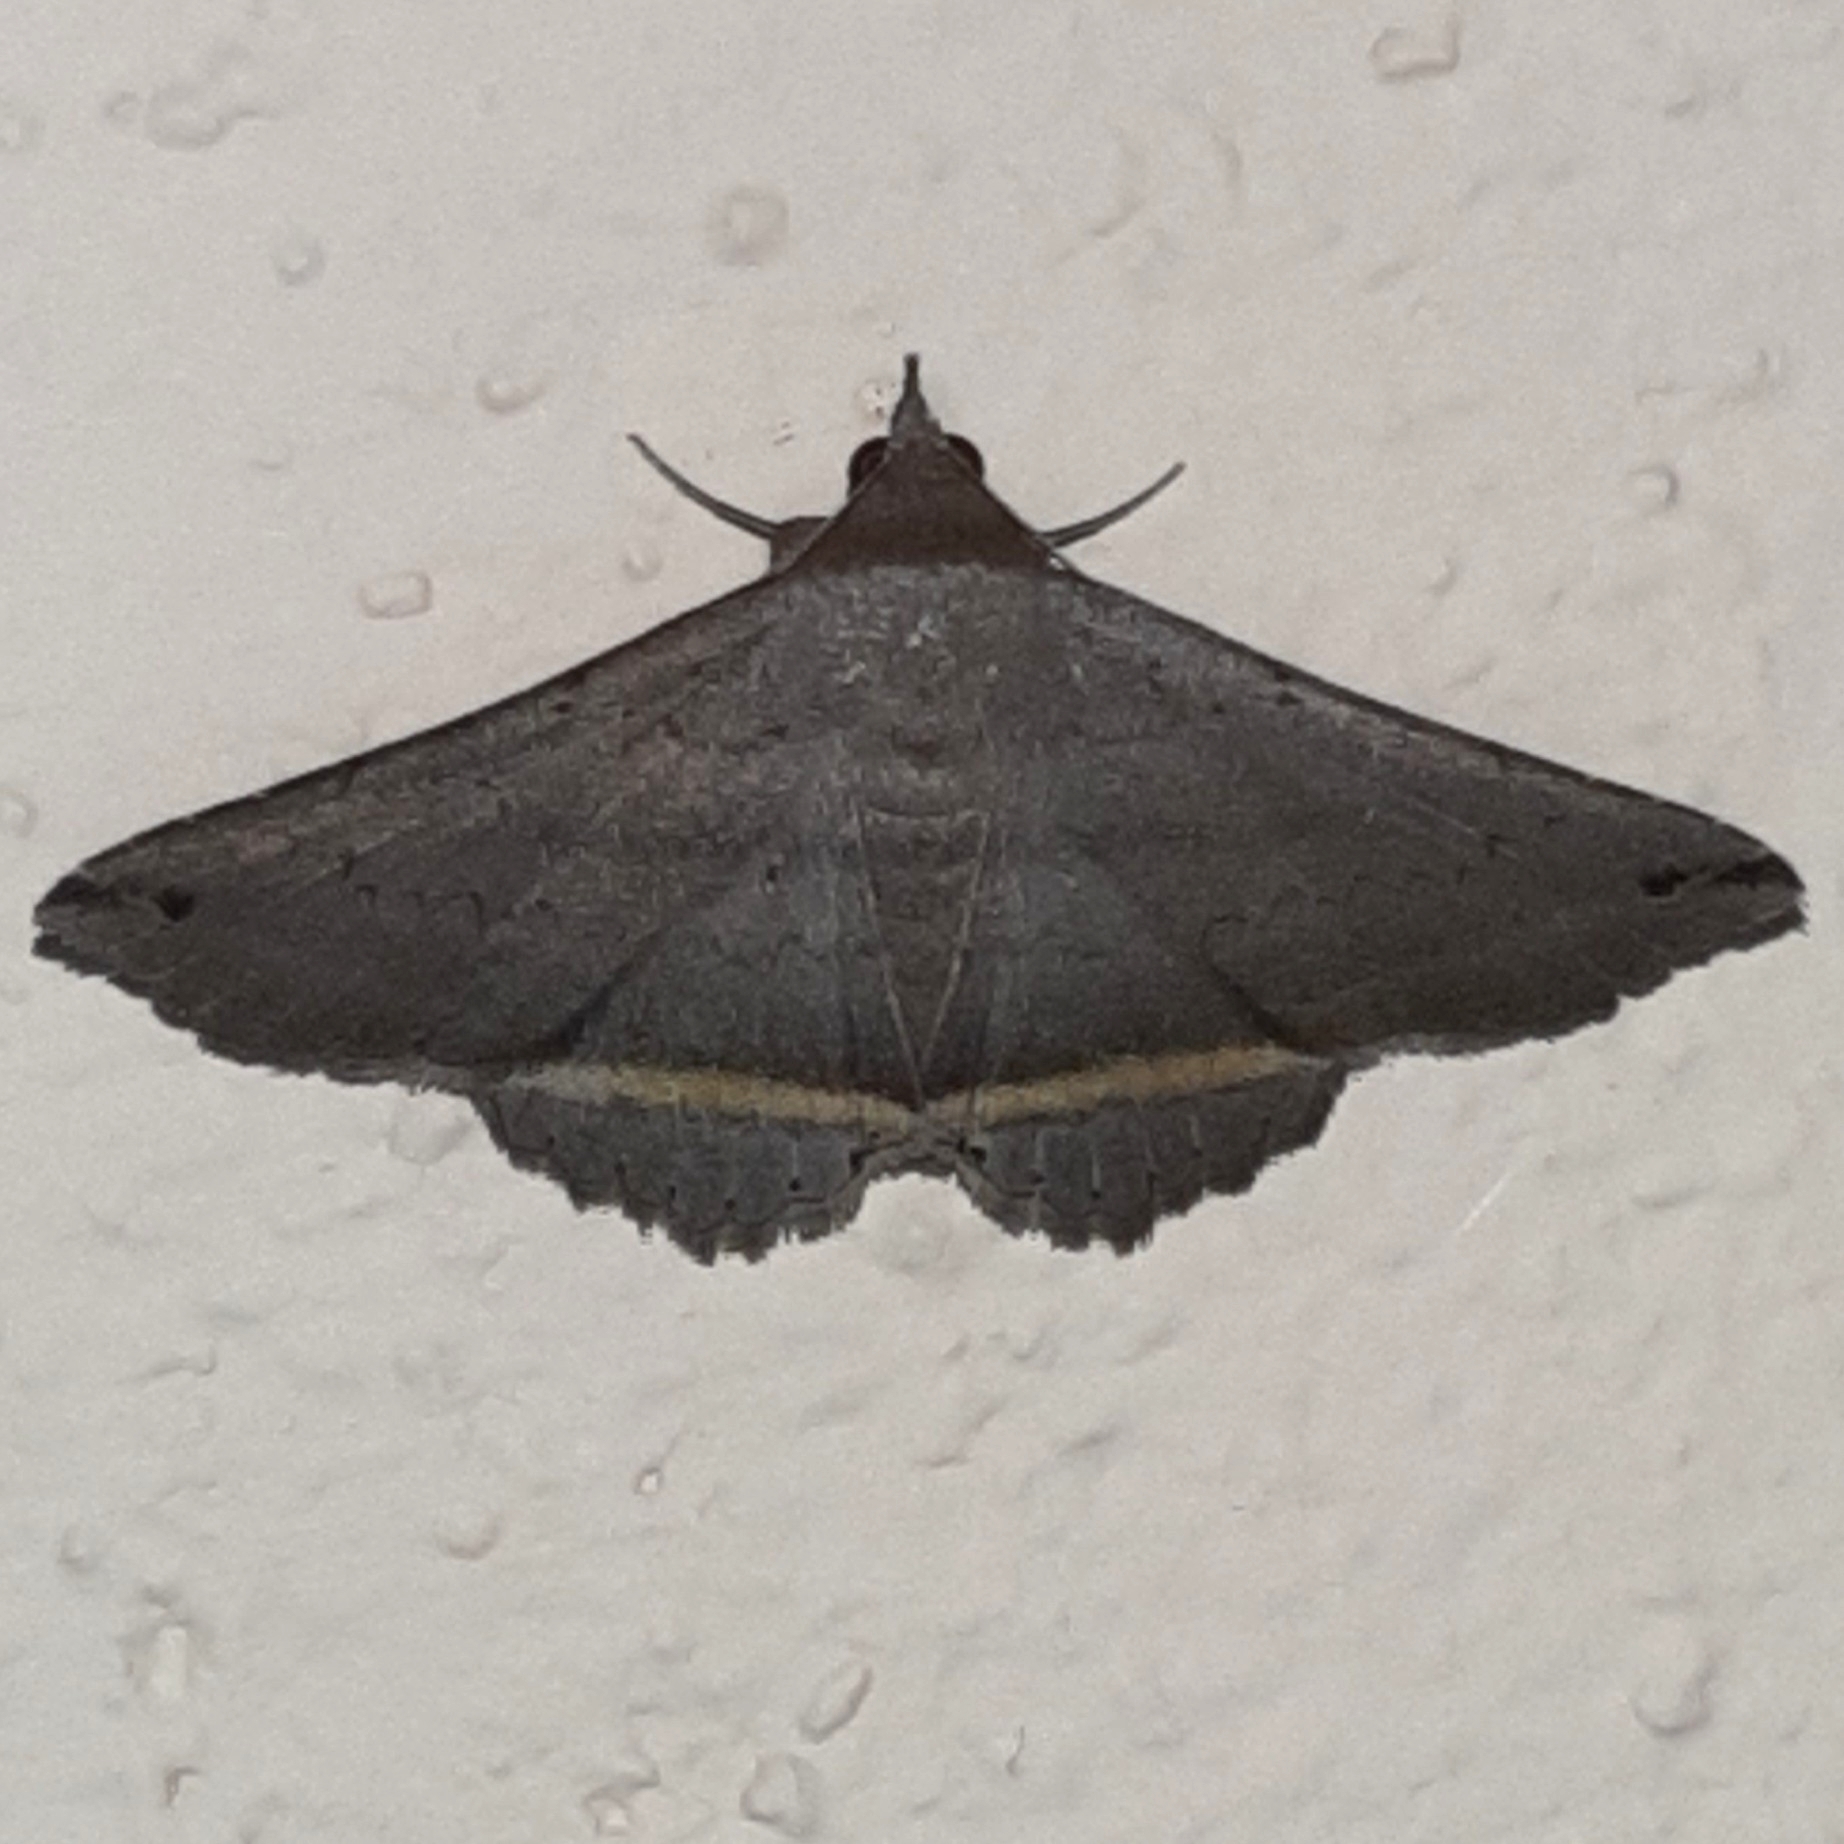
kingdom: Animalia
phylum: Arthropoda
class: Insecta
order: Lepidoptera
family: Erebidae
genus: Lesmone
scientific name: Lesmone formularis
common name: Lesmone moth
